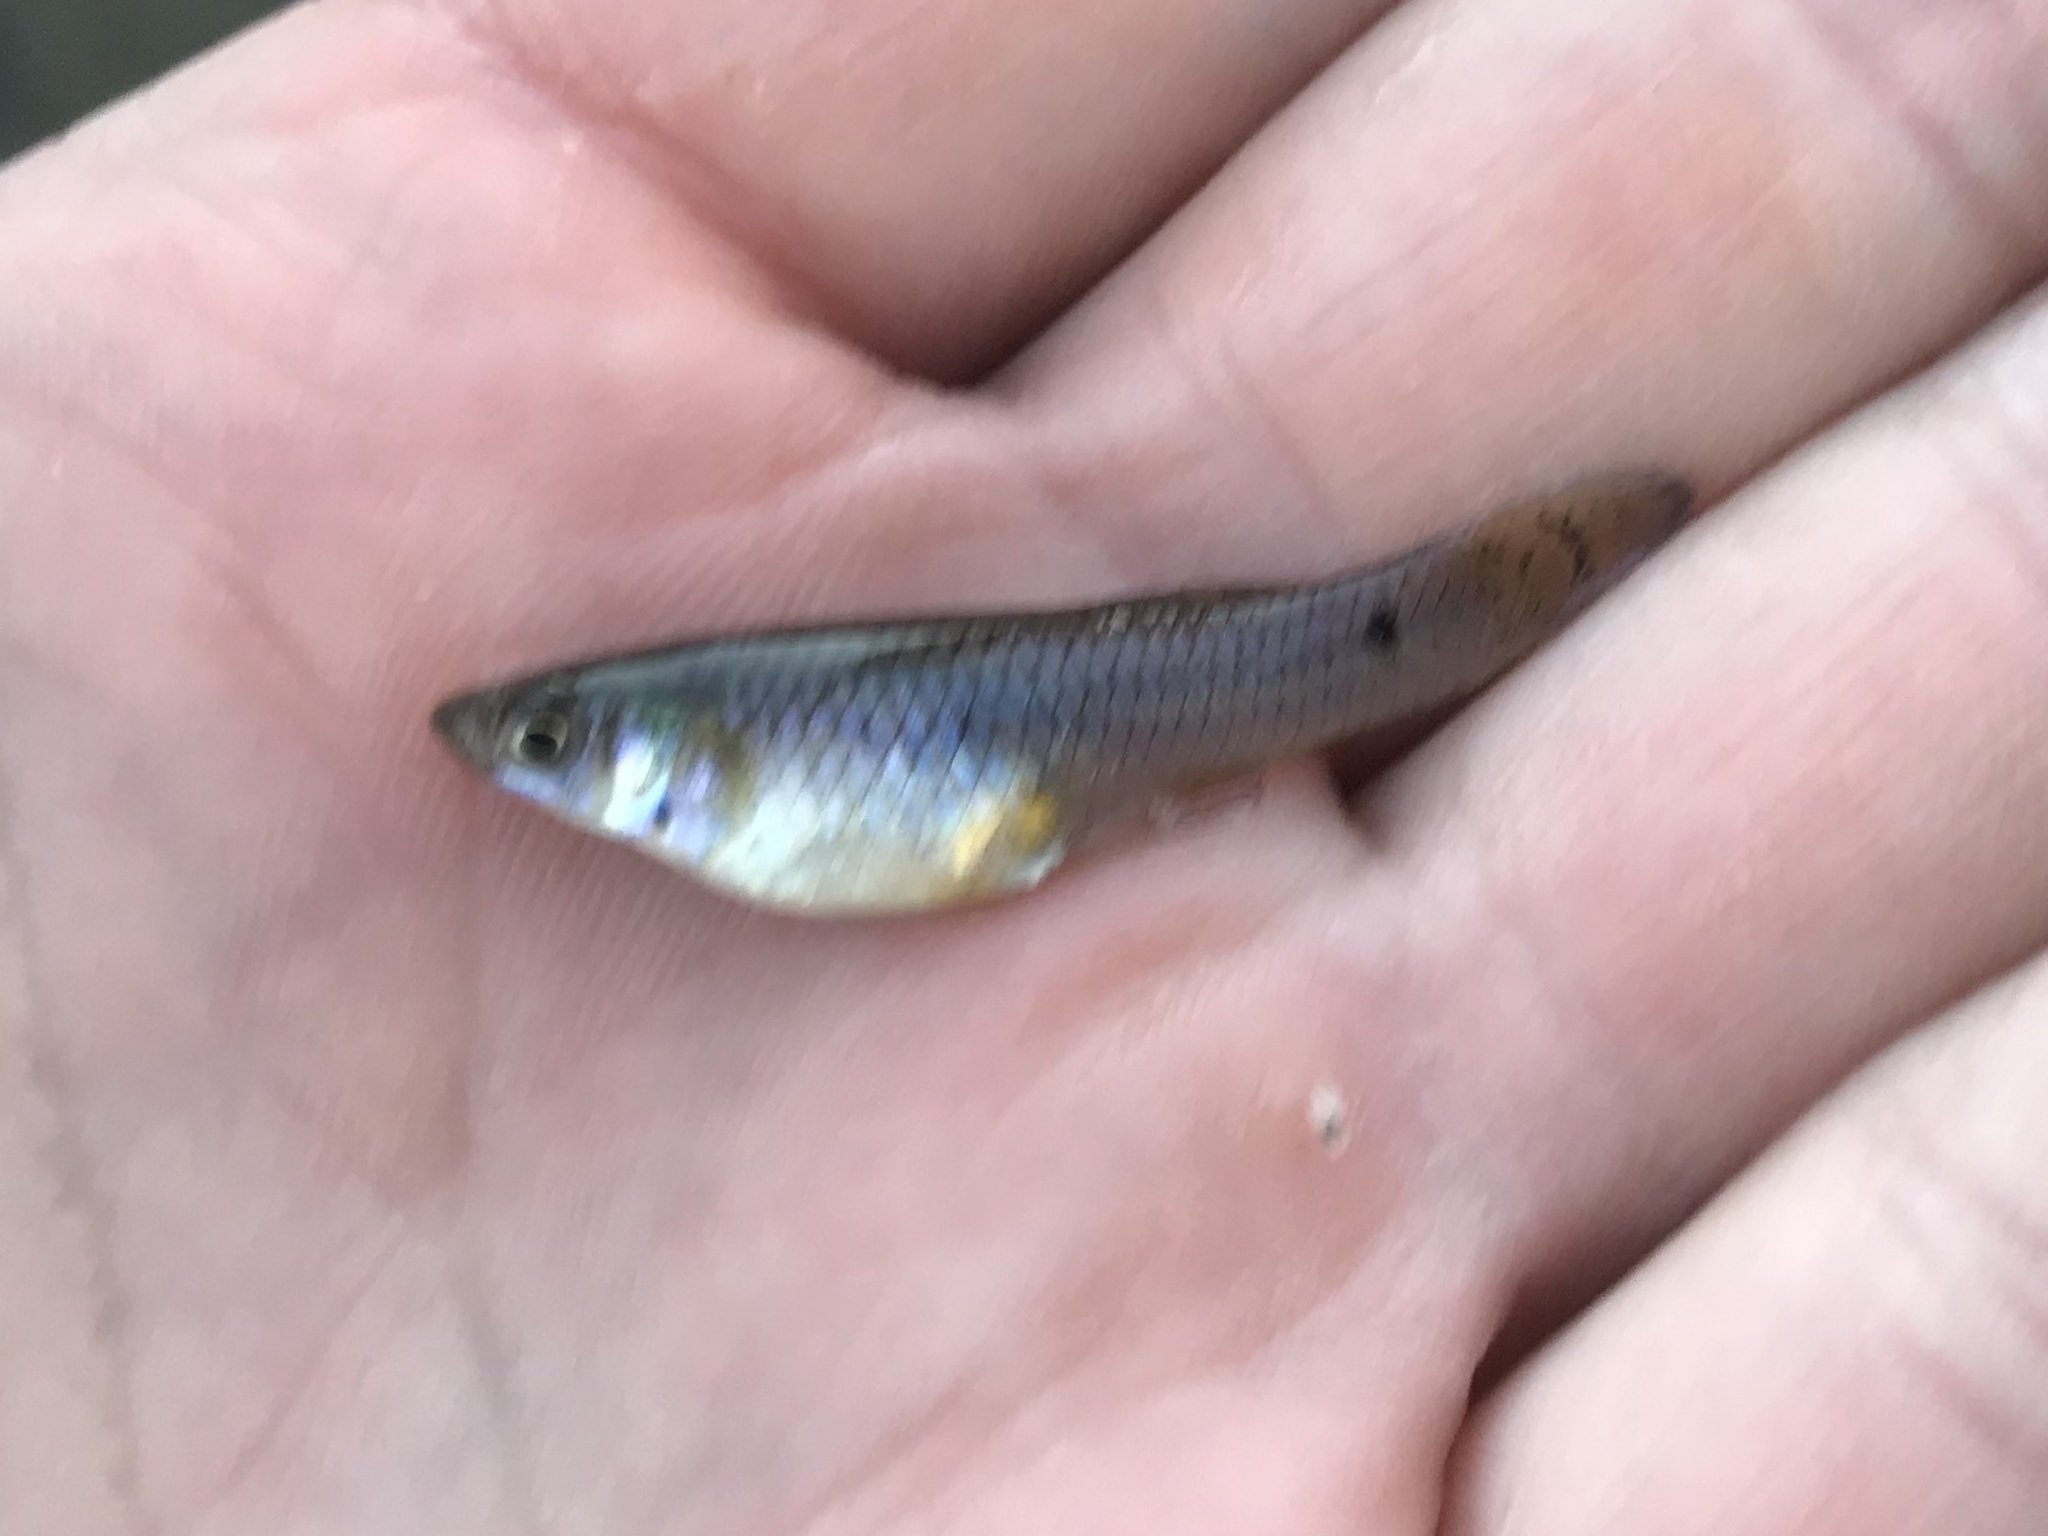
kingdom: Animalia
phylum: Chordata
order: Cyprinodontiformes
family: Poeciliidae
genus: Gambusia
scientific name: Gambusia affinis
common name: Mosquitofish
